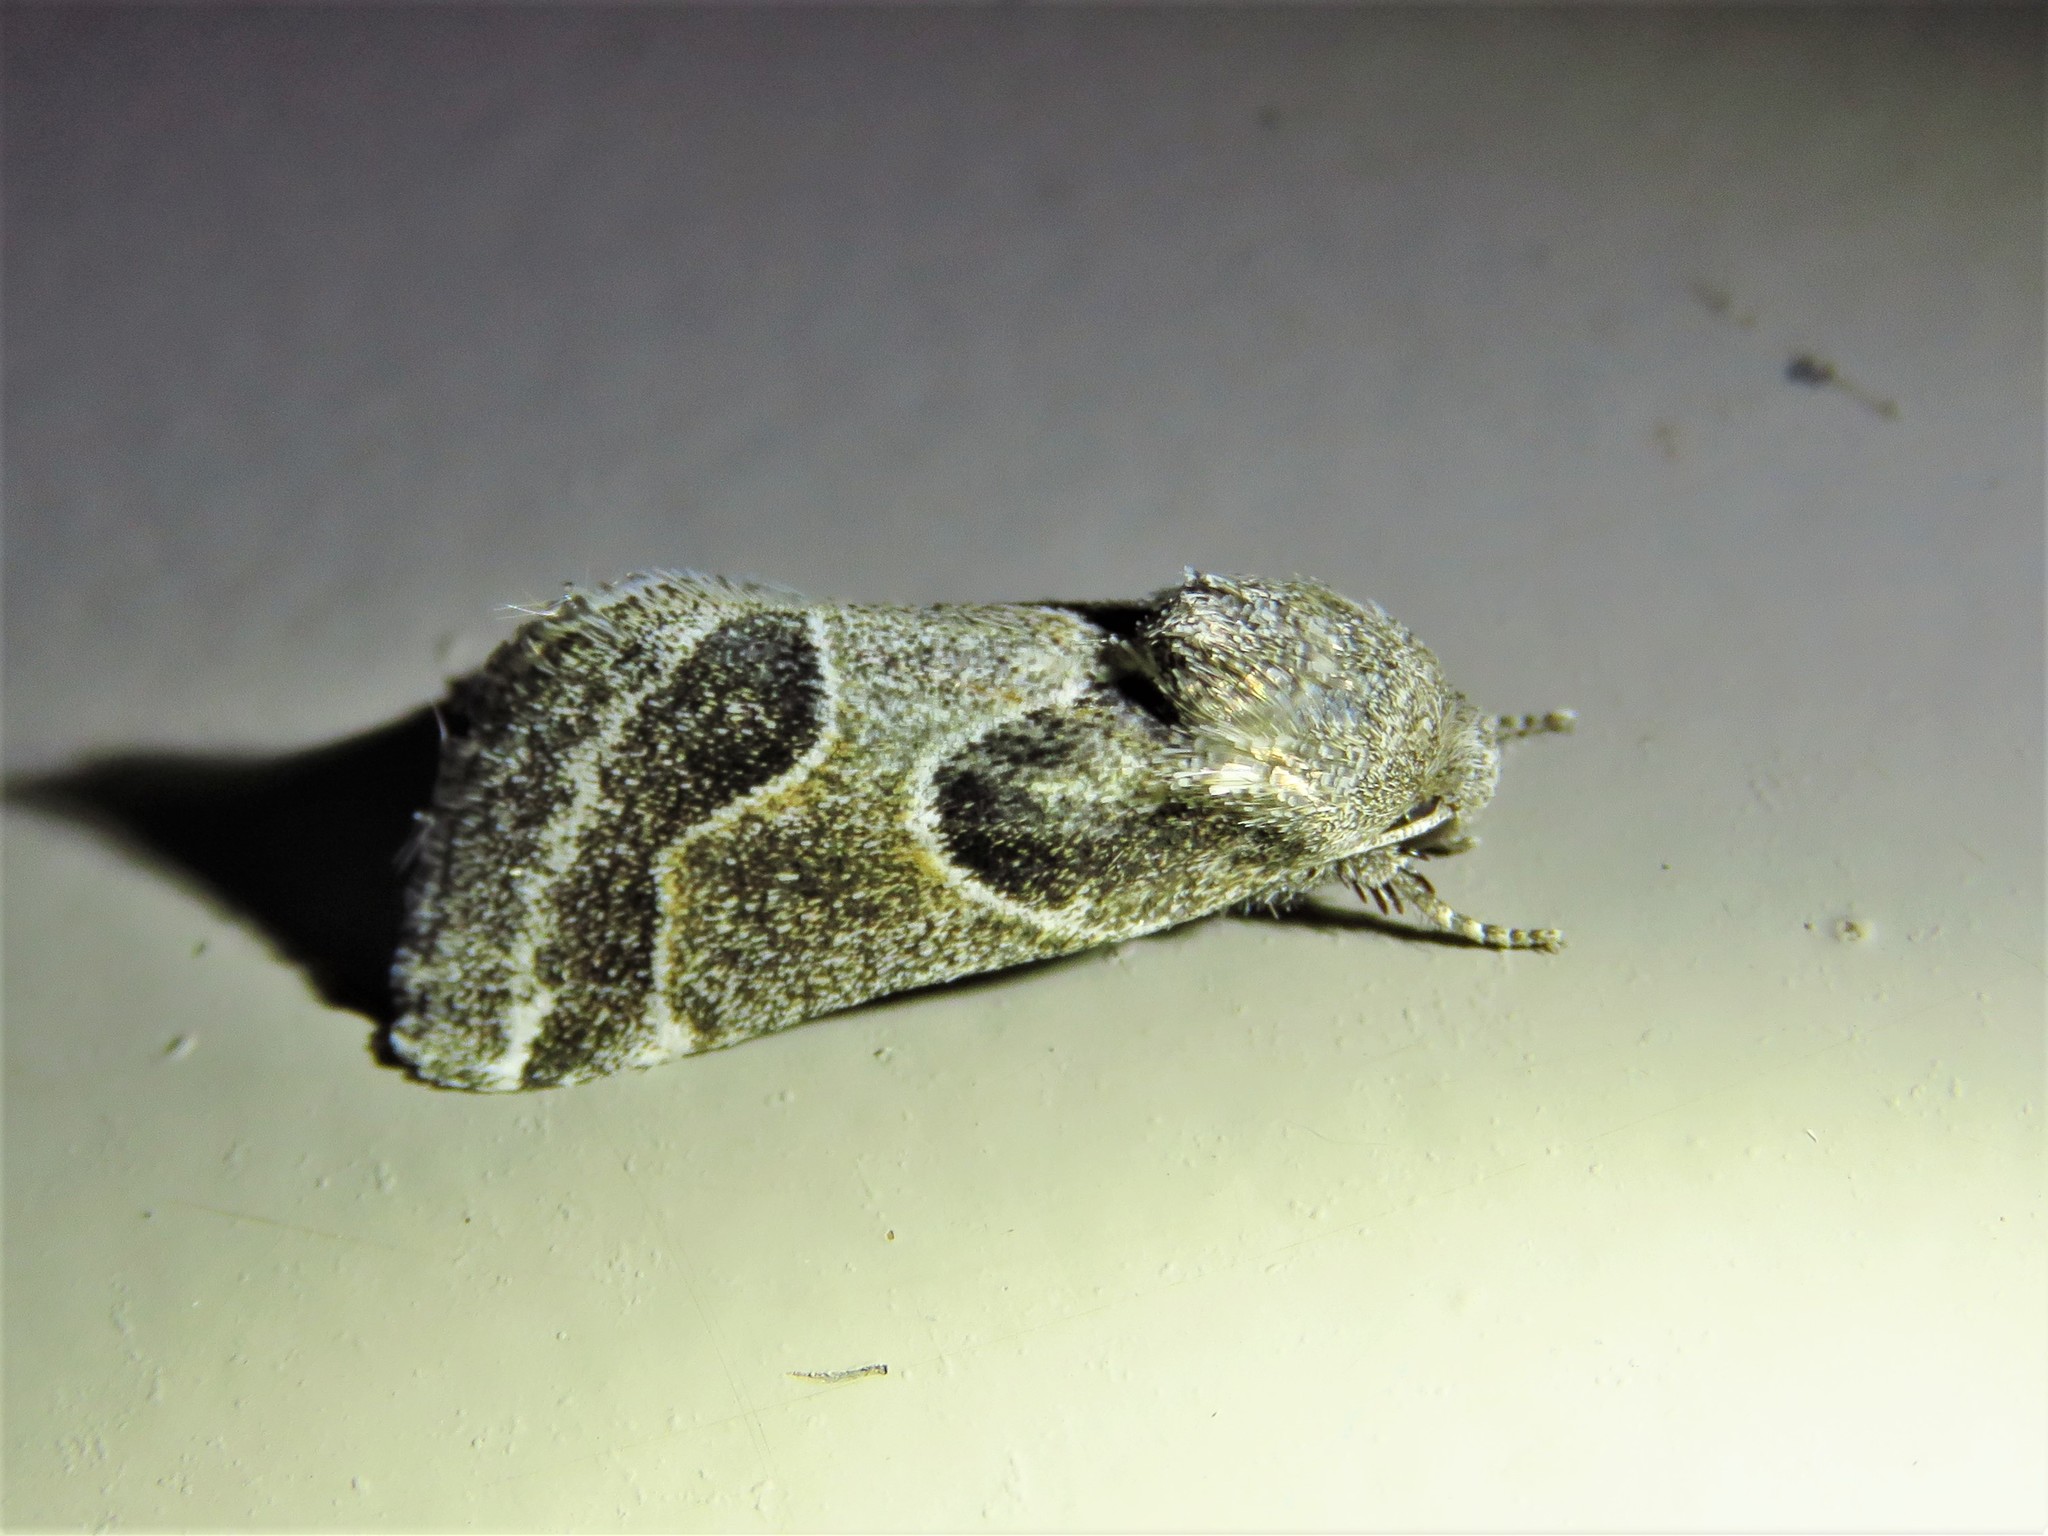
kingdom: Animalia
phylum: Arthropoda
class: Insecta
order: Lepidoptera
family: Noctuidae
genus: Schinia
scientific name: Schinia rivulosa
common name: Scarce meal-moth
